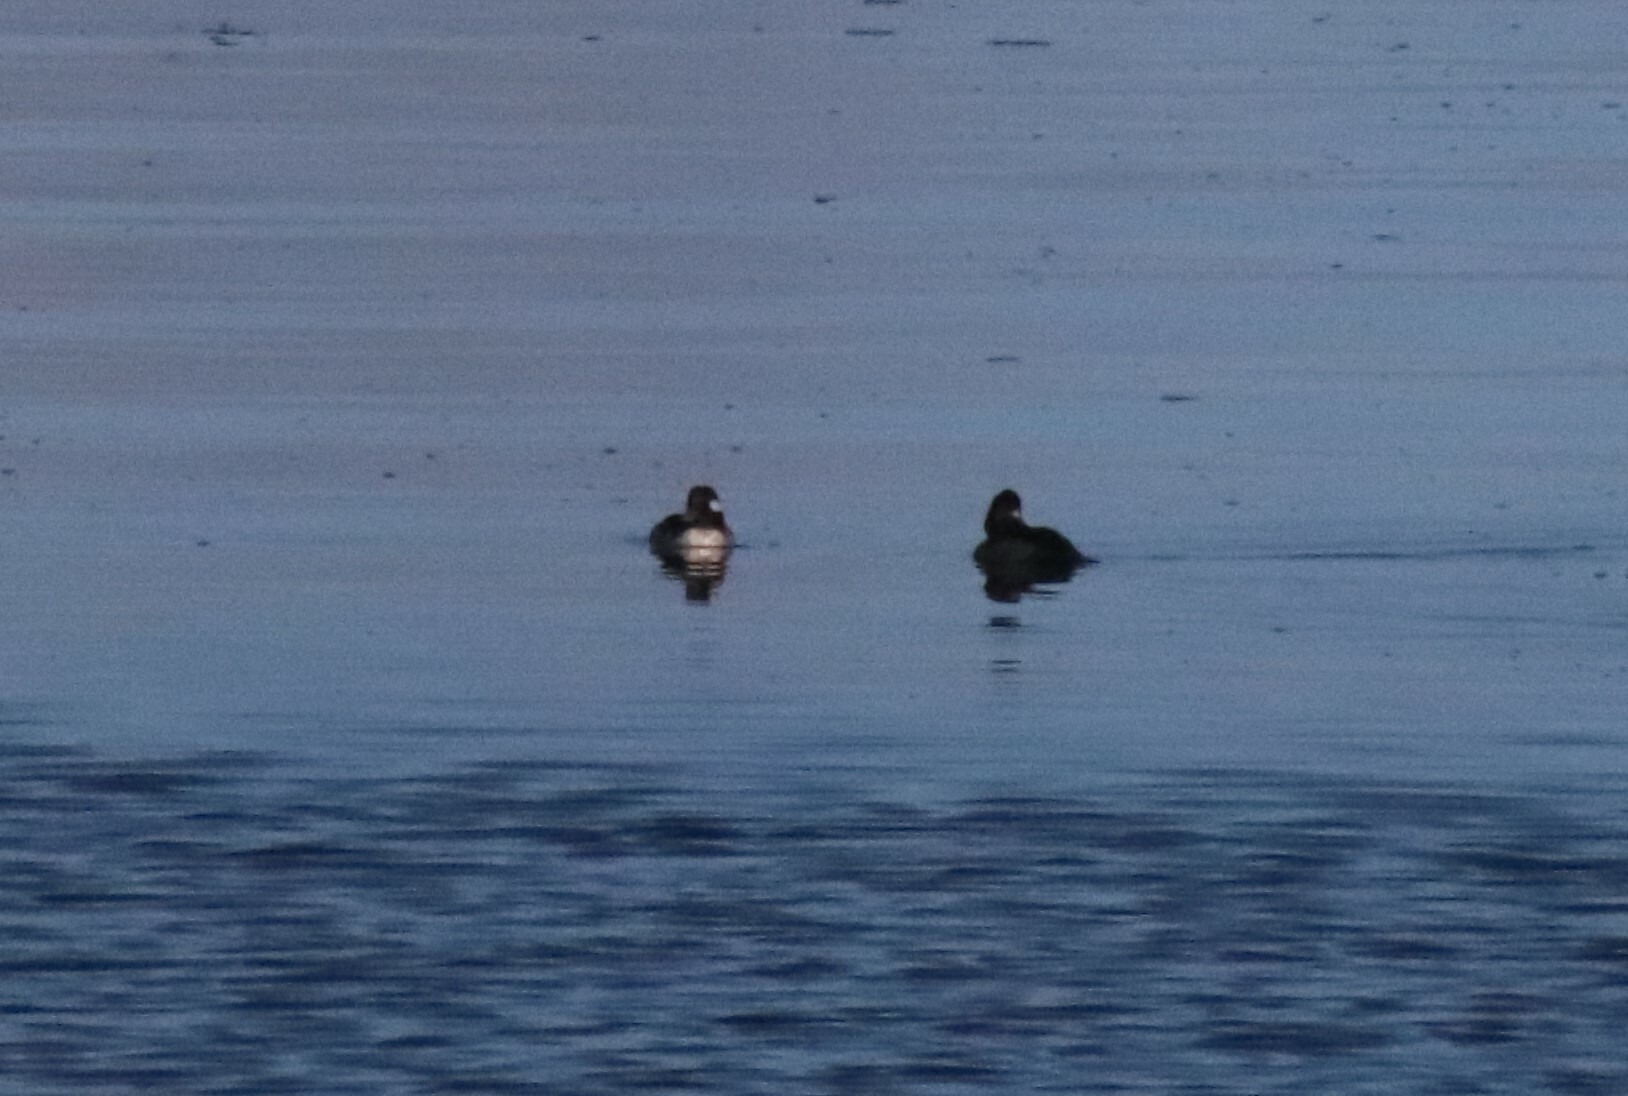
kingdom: Animalia
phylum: Chordata
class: Aves
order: Anseriformes
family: Anatidae
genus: Bucephala
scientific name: Bucephala albeola
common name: Bufflehead
